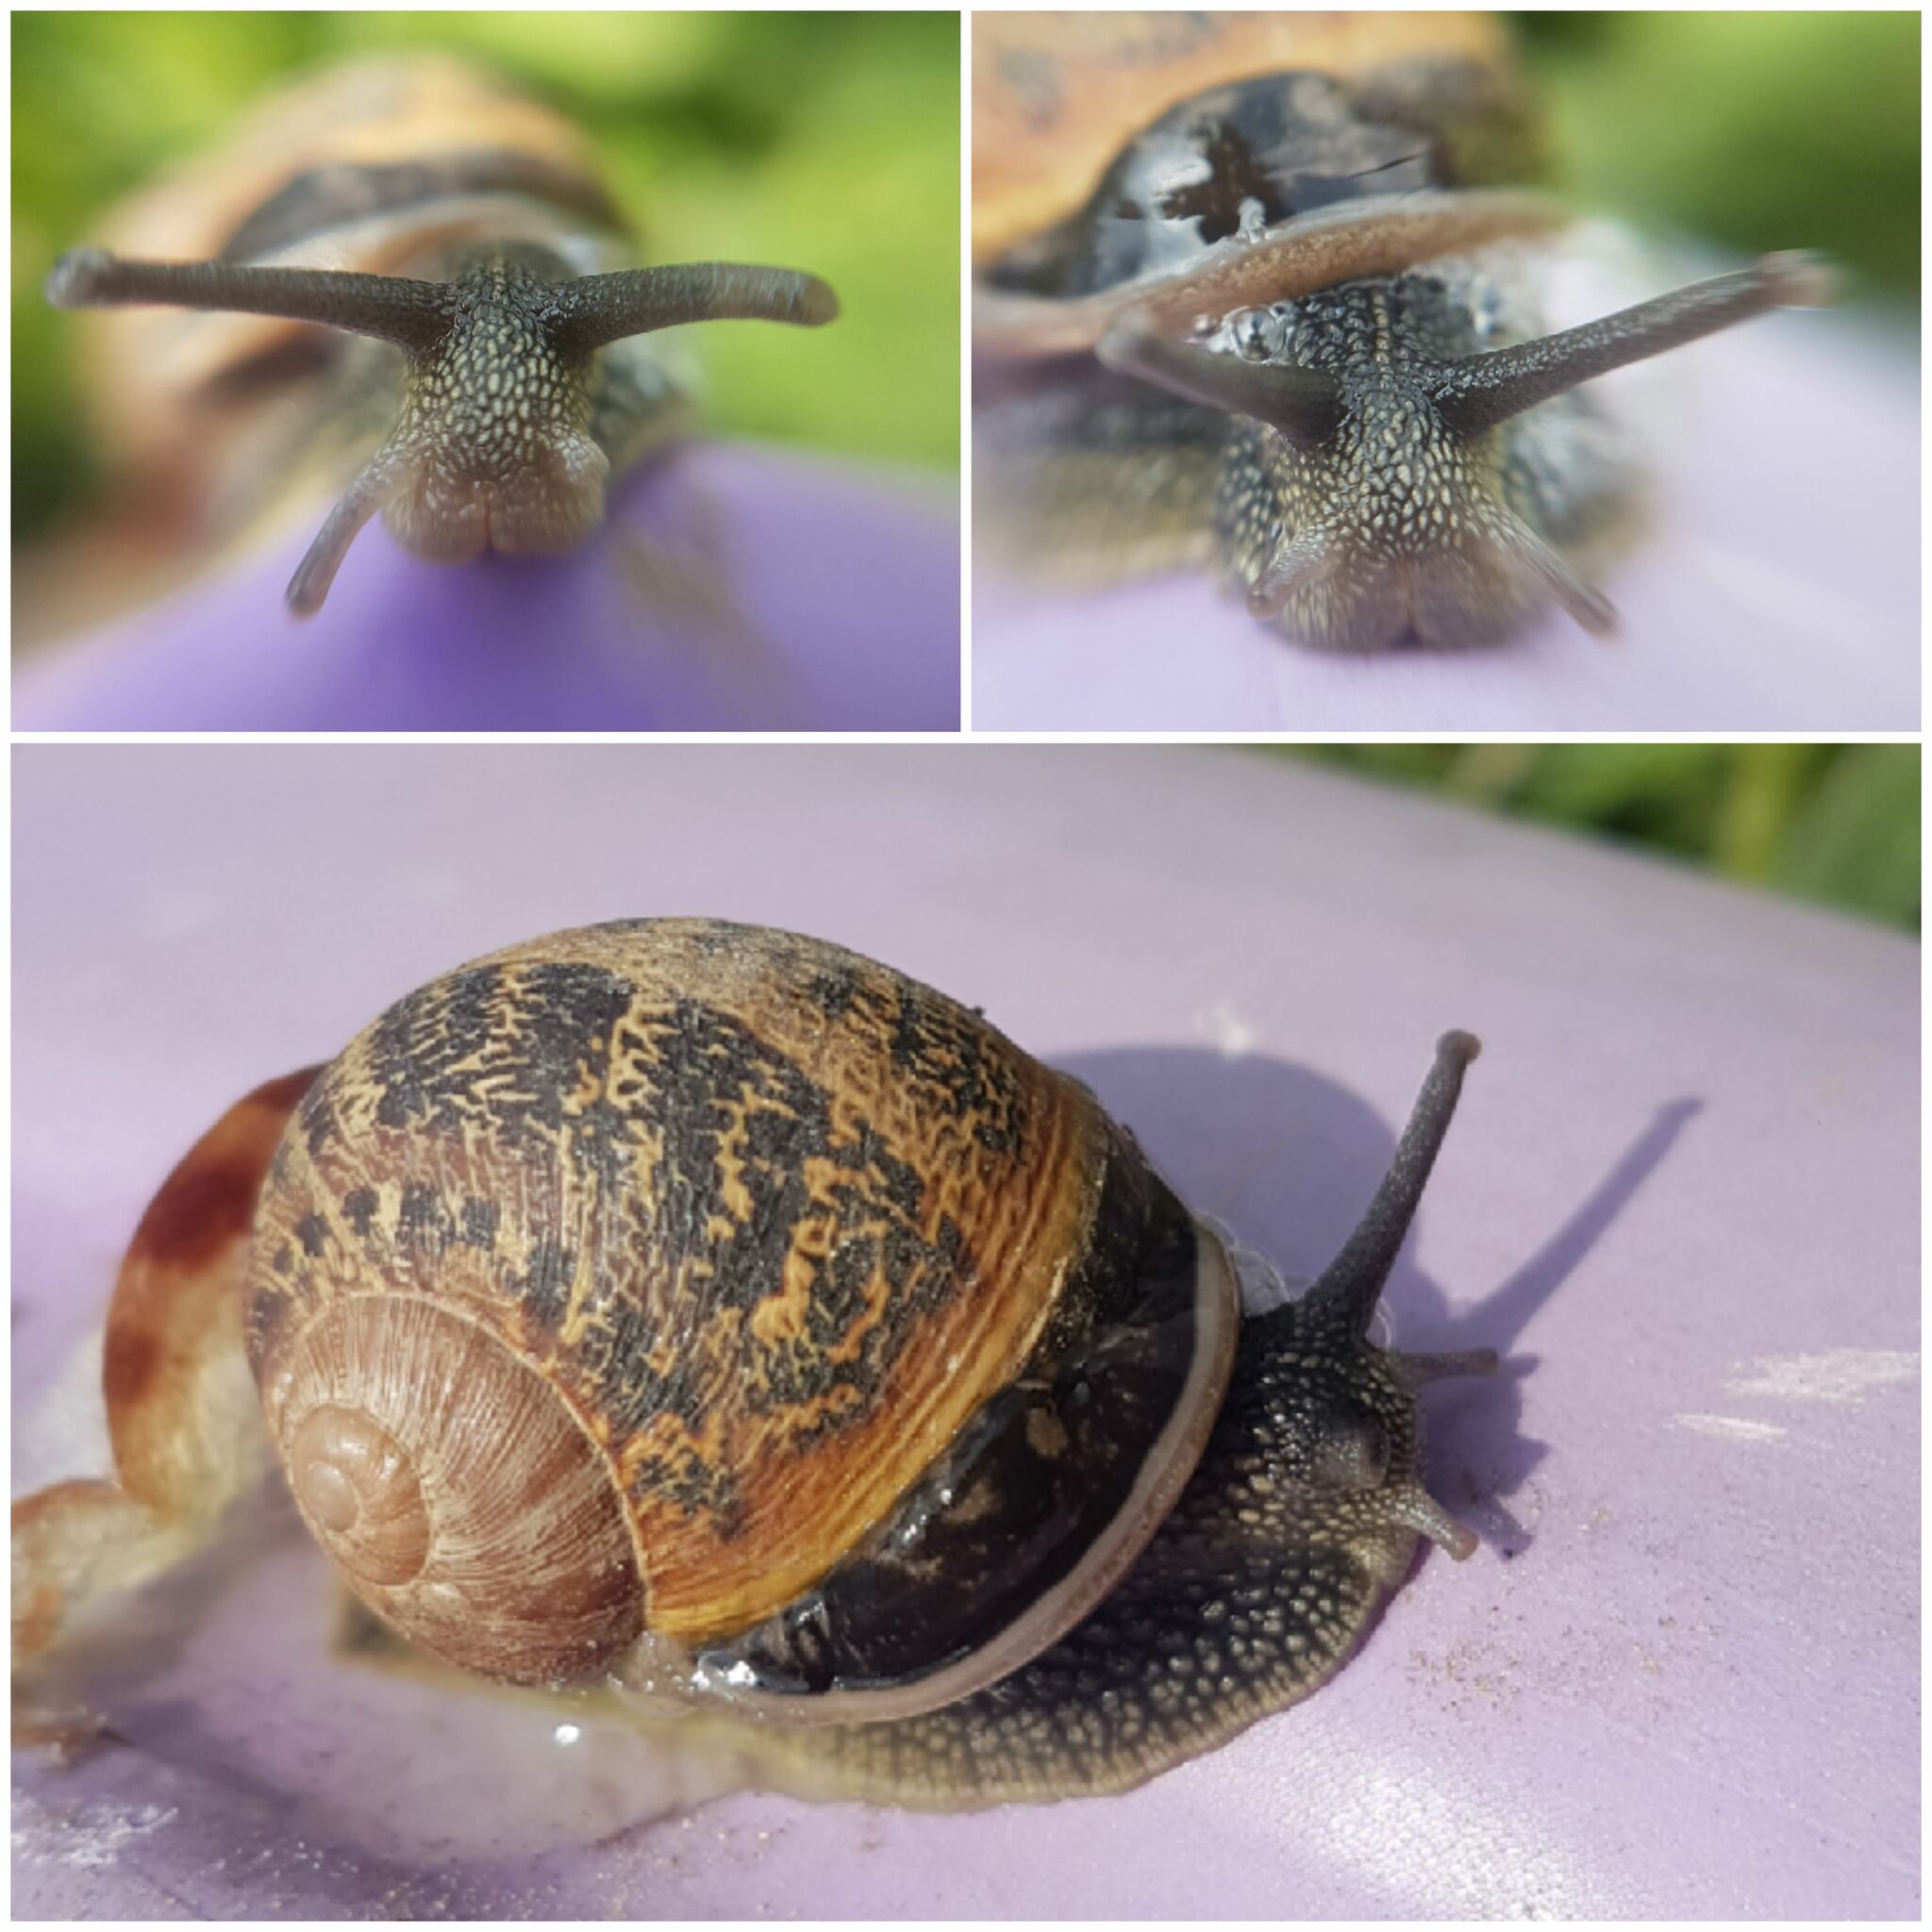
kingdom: Animalia
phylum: Mollusca
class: Gastropoda
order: Stylommatophora
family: Helicidae
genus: Cornu
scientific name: Cornu aspersum
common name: Brown garden snail
